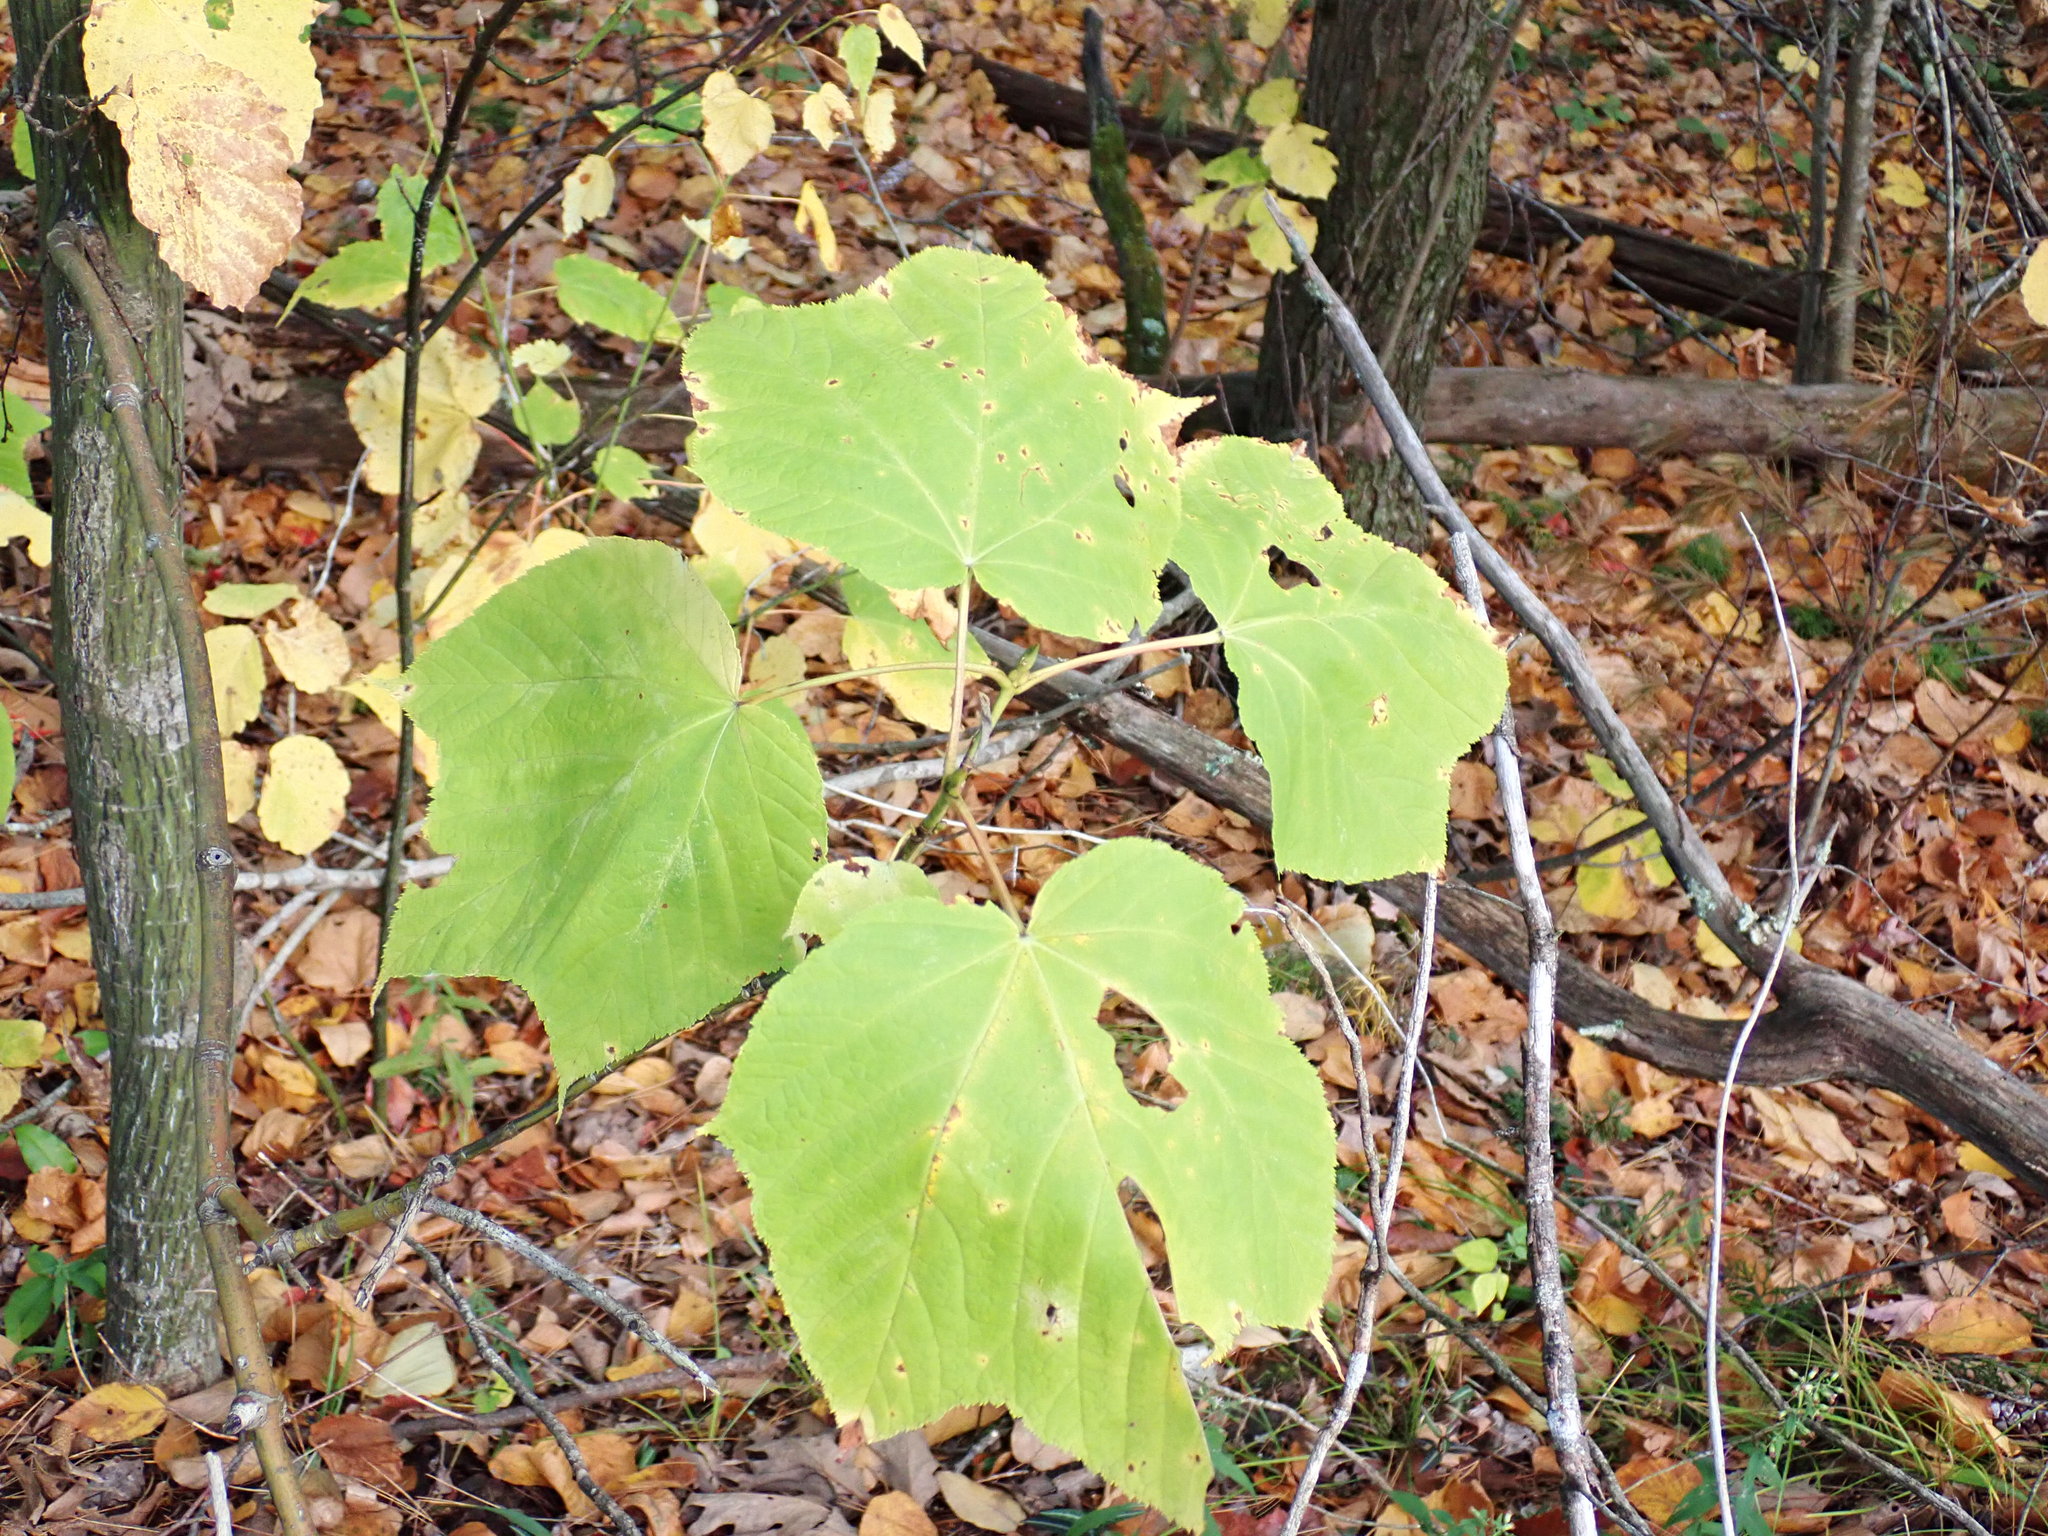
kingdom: Plantae
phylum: Tracheophyta
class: Magnoliopsida
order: Sapindales
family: Sapindaceae
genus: Acer
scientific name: Acer pensylvanicum
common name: Moosewood
